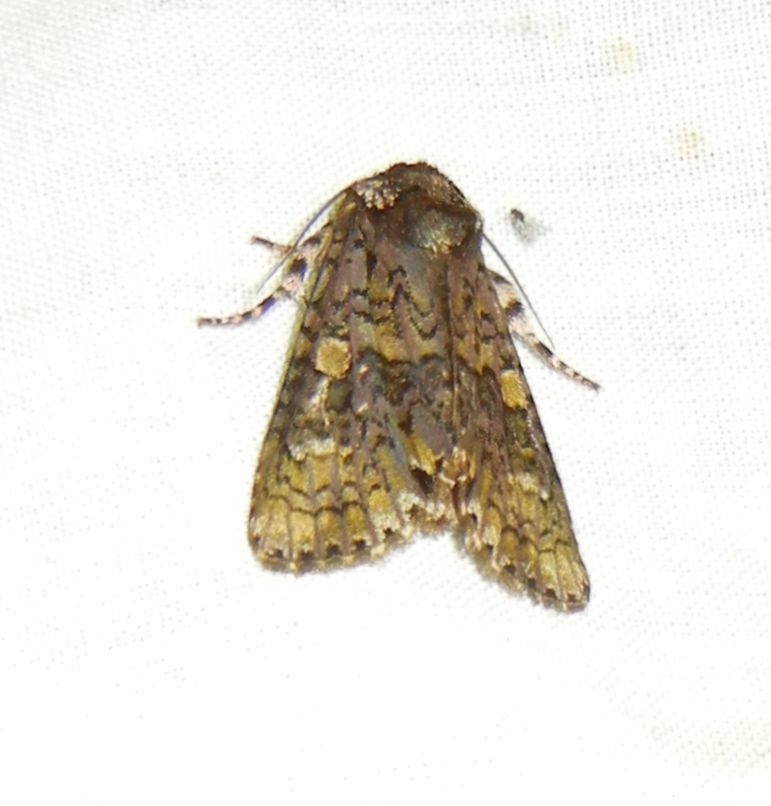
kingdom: Animalia
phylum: Arthropoda
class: Insecta
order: Lepidoptera
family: Noctuidae
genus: Craniophora
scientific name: Craniophora ligustri
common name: Coronet
